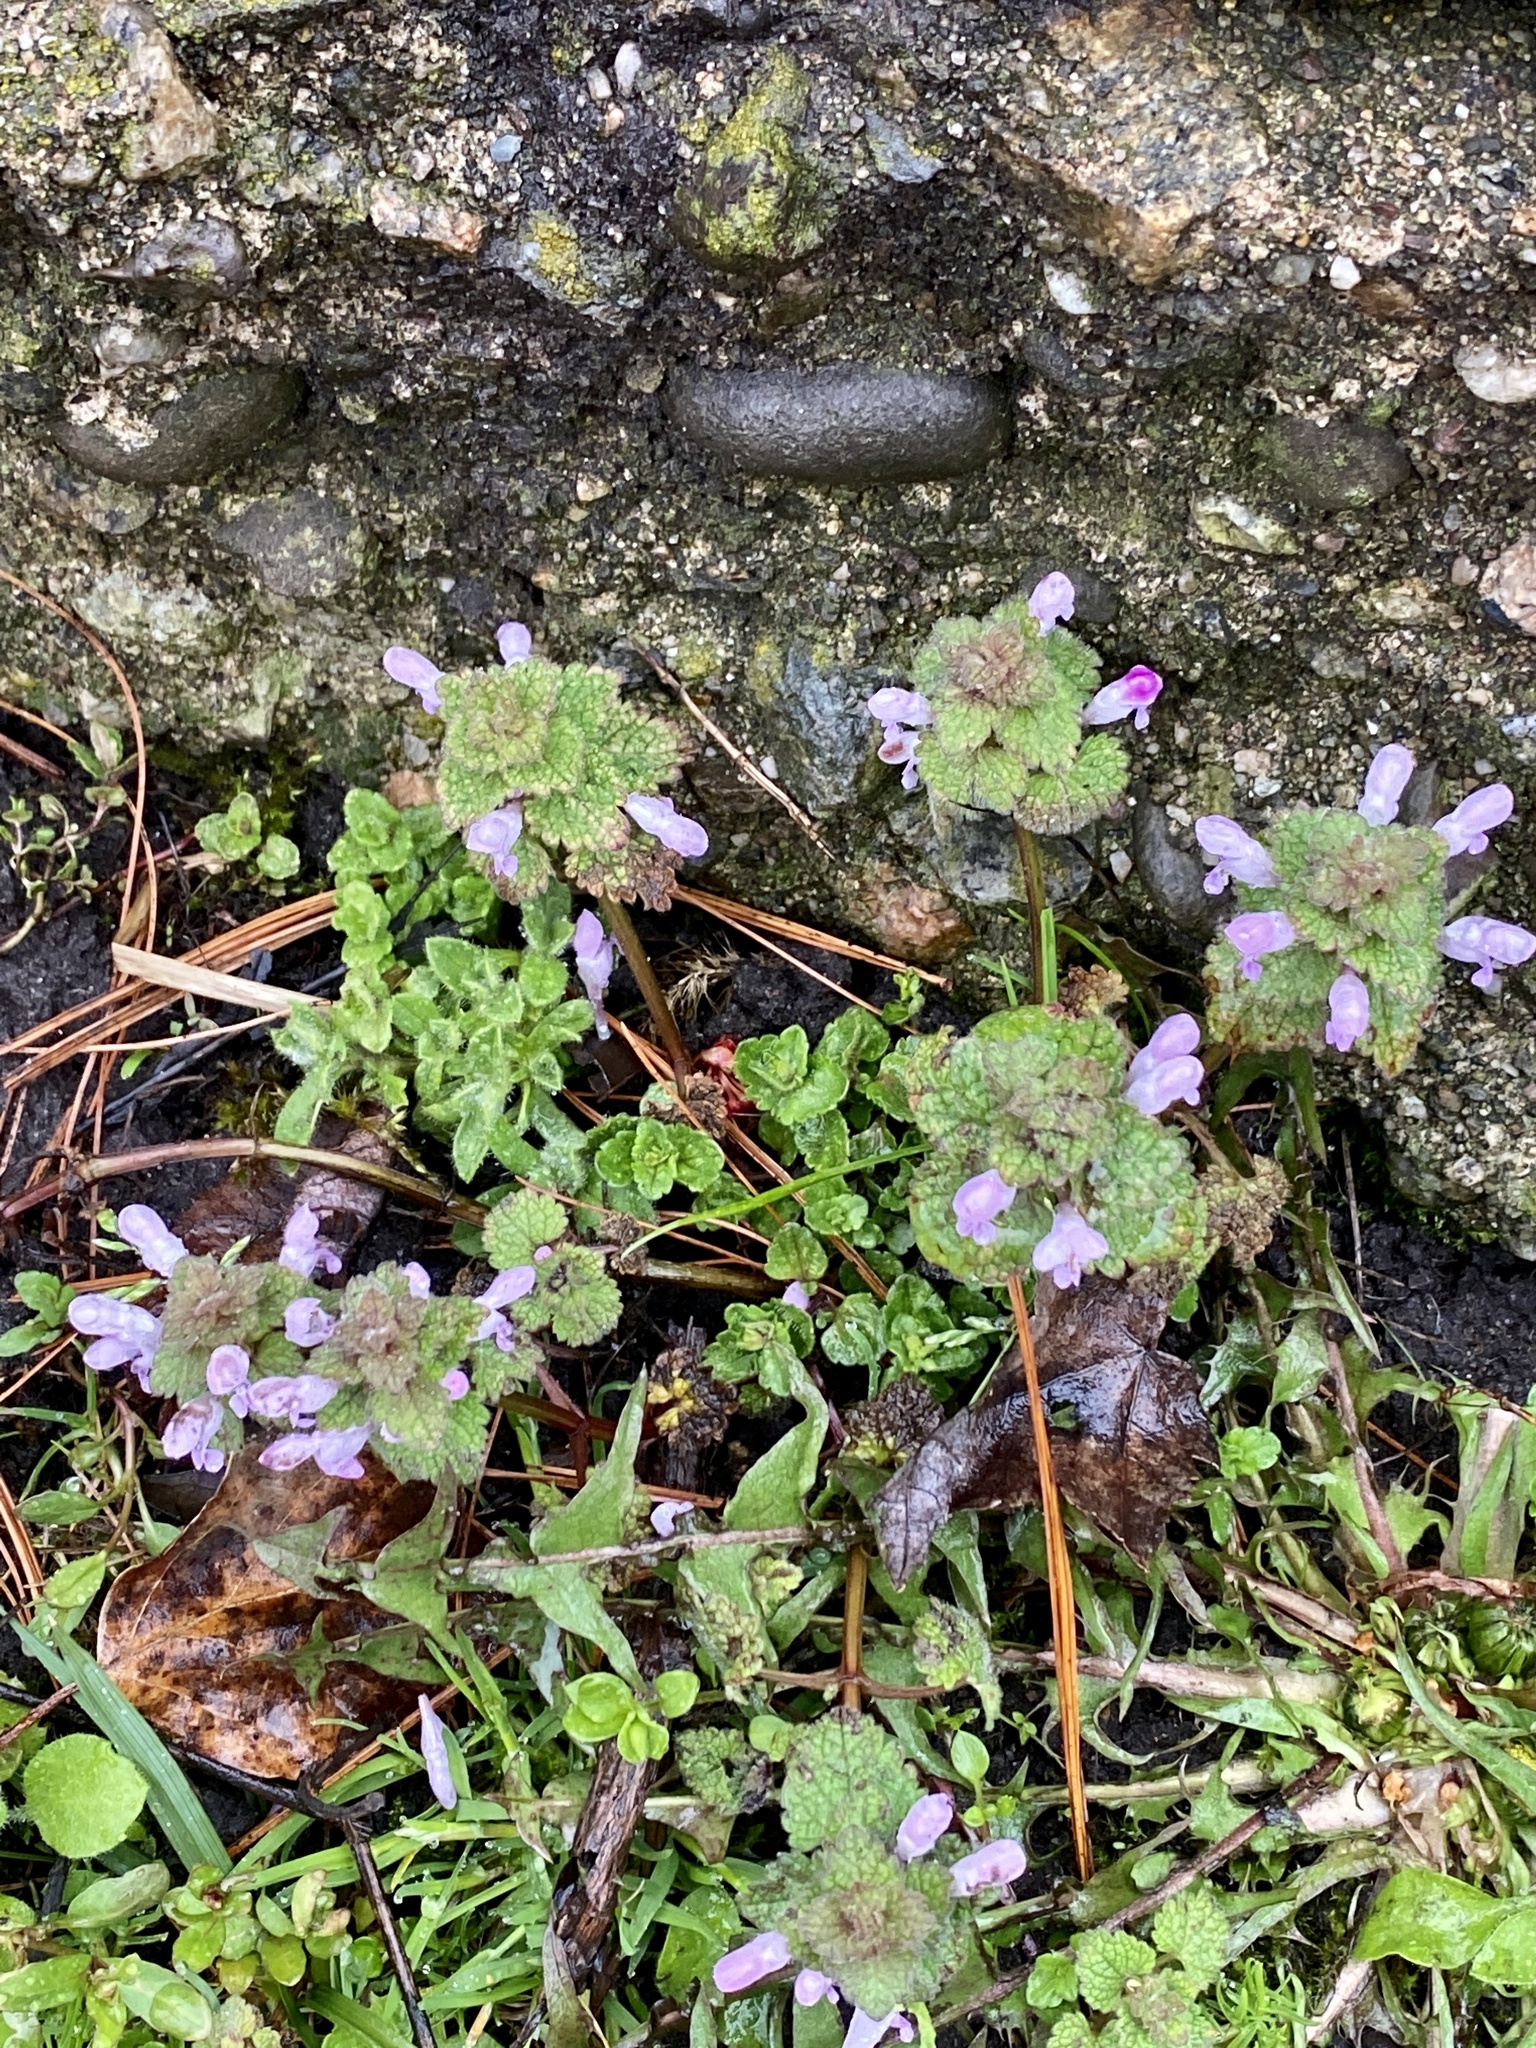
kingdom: Plantae
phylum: Tracheophyta
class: Magnoliopsida
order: Lamiales
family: Lamiaceae
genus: Lamium
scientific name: Lamium purpureum
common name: Red dead-nettle
